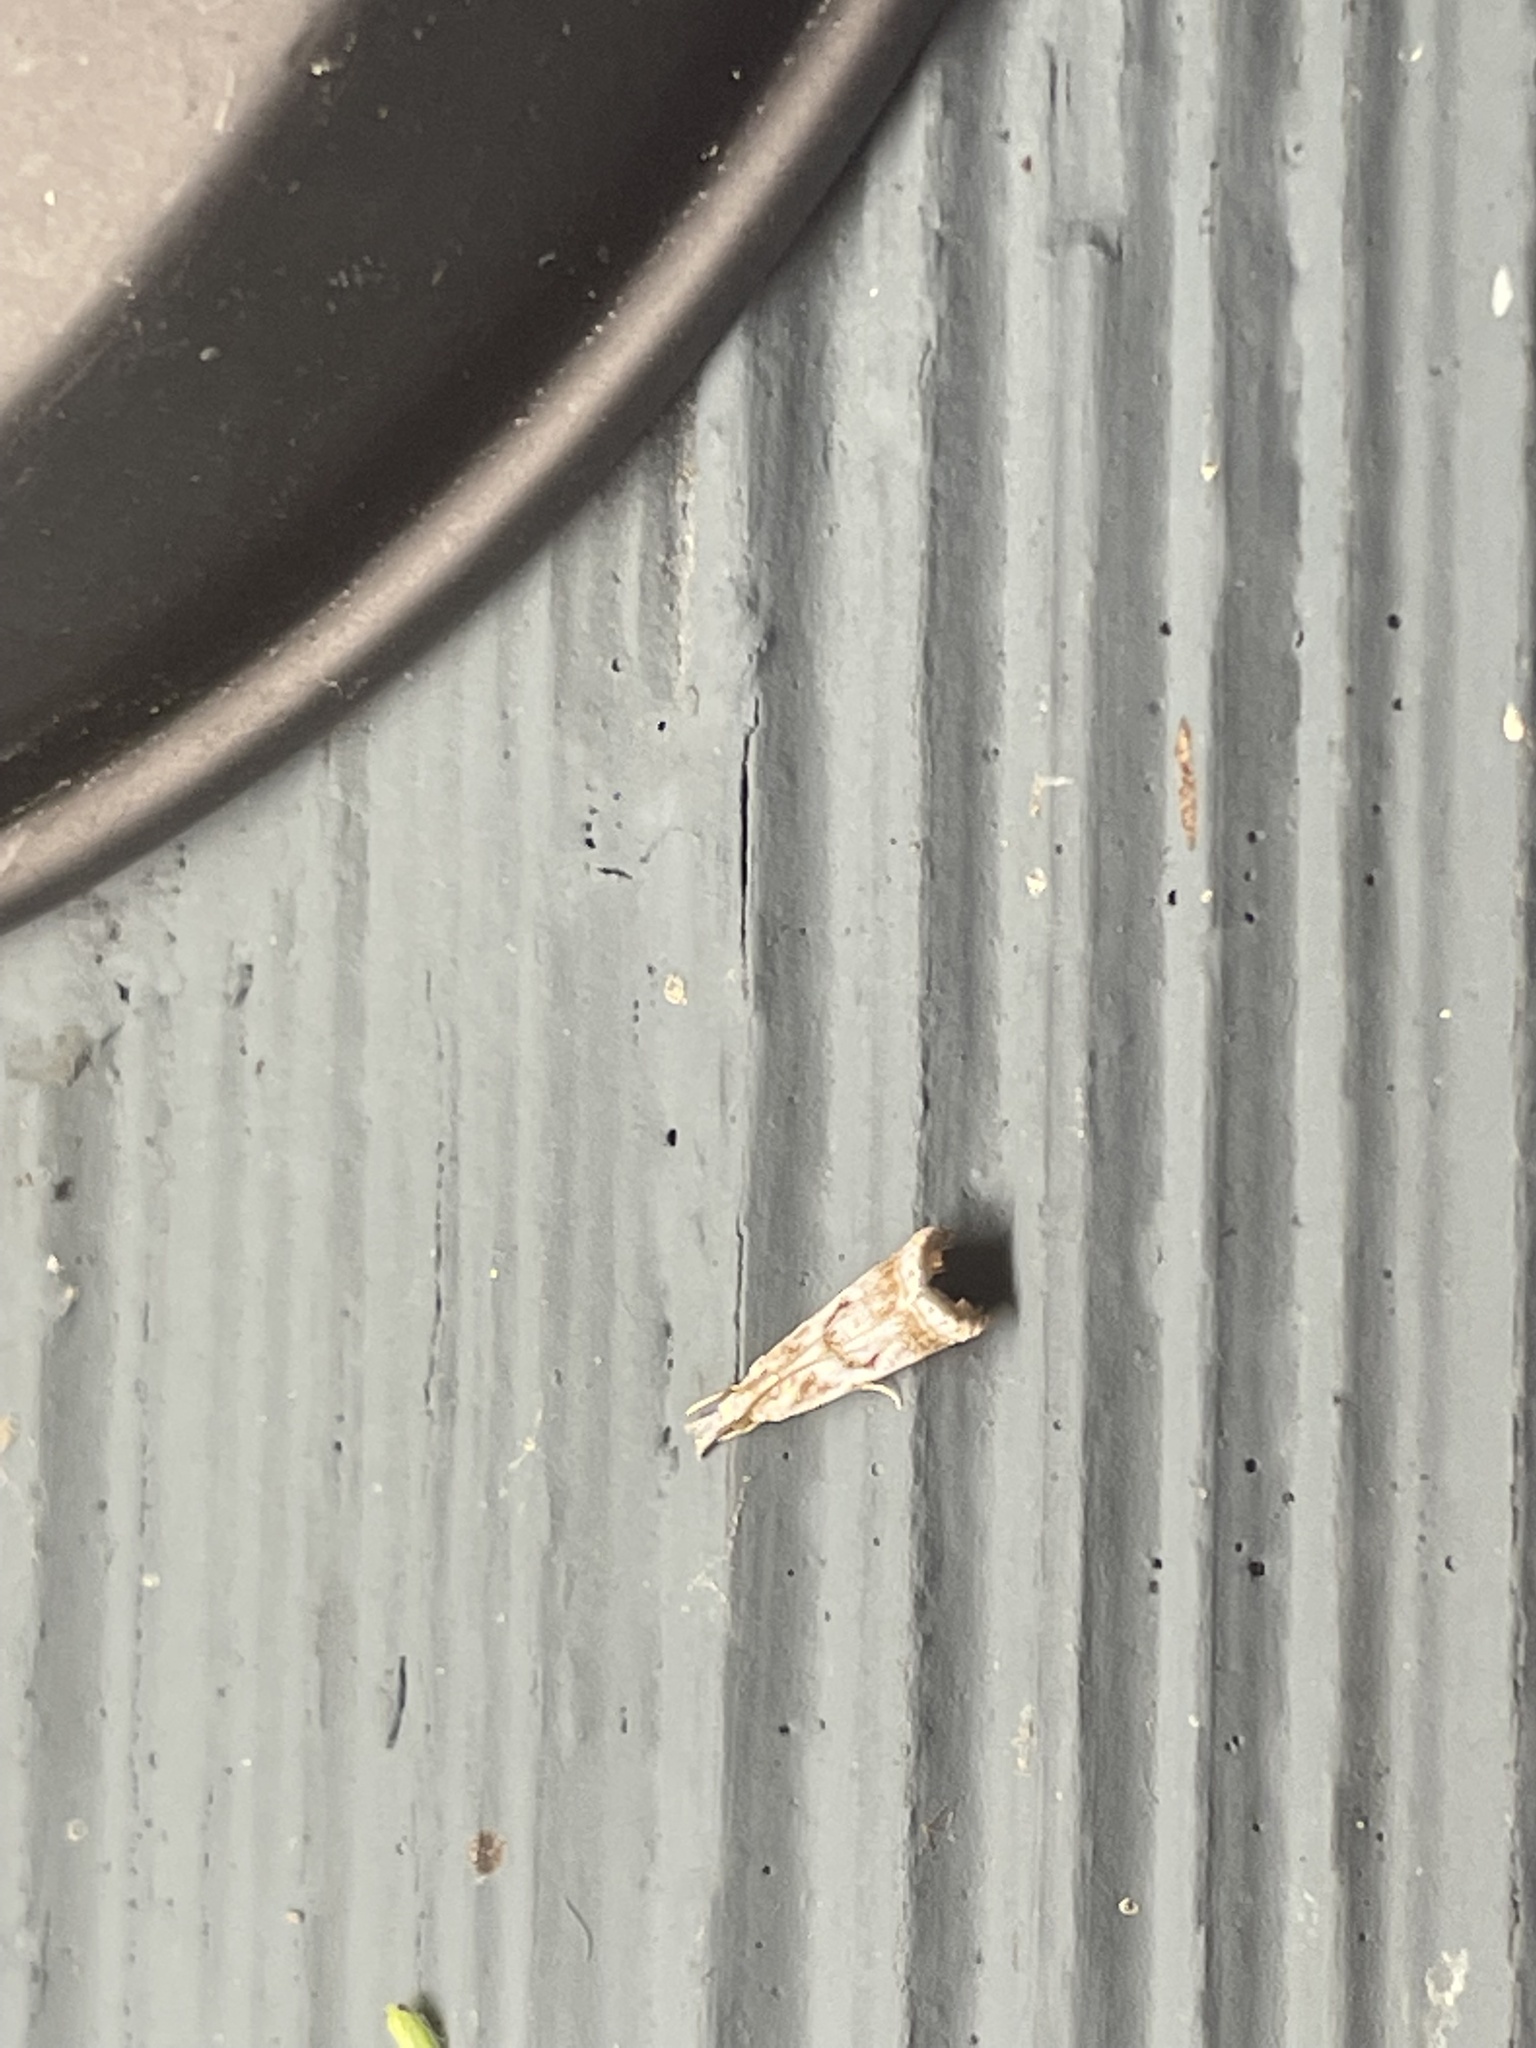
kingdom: Animalia
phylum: Arthropoda
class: Insecta
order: Lepidoptera
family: Crambidae
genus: Microcrambus
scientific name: Microcrambus elegans
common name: Elegant grass-veneer
